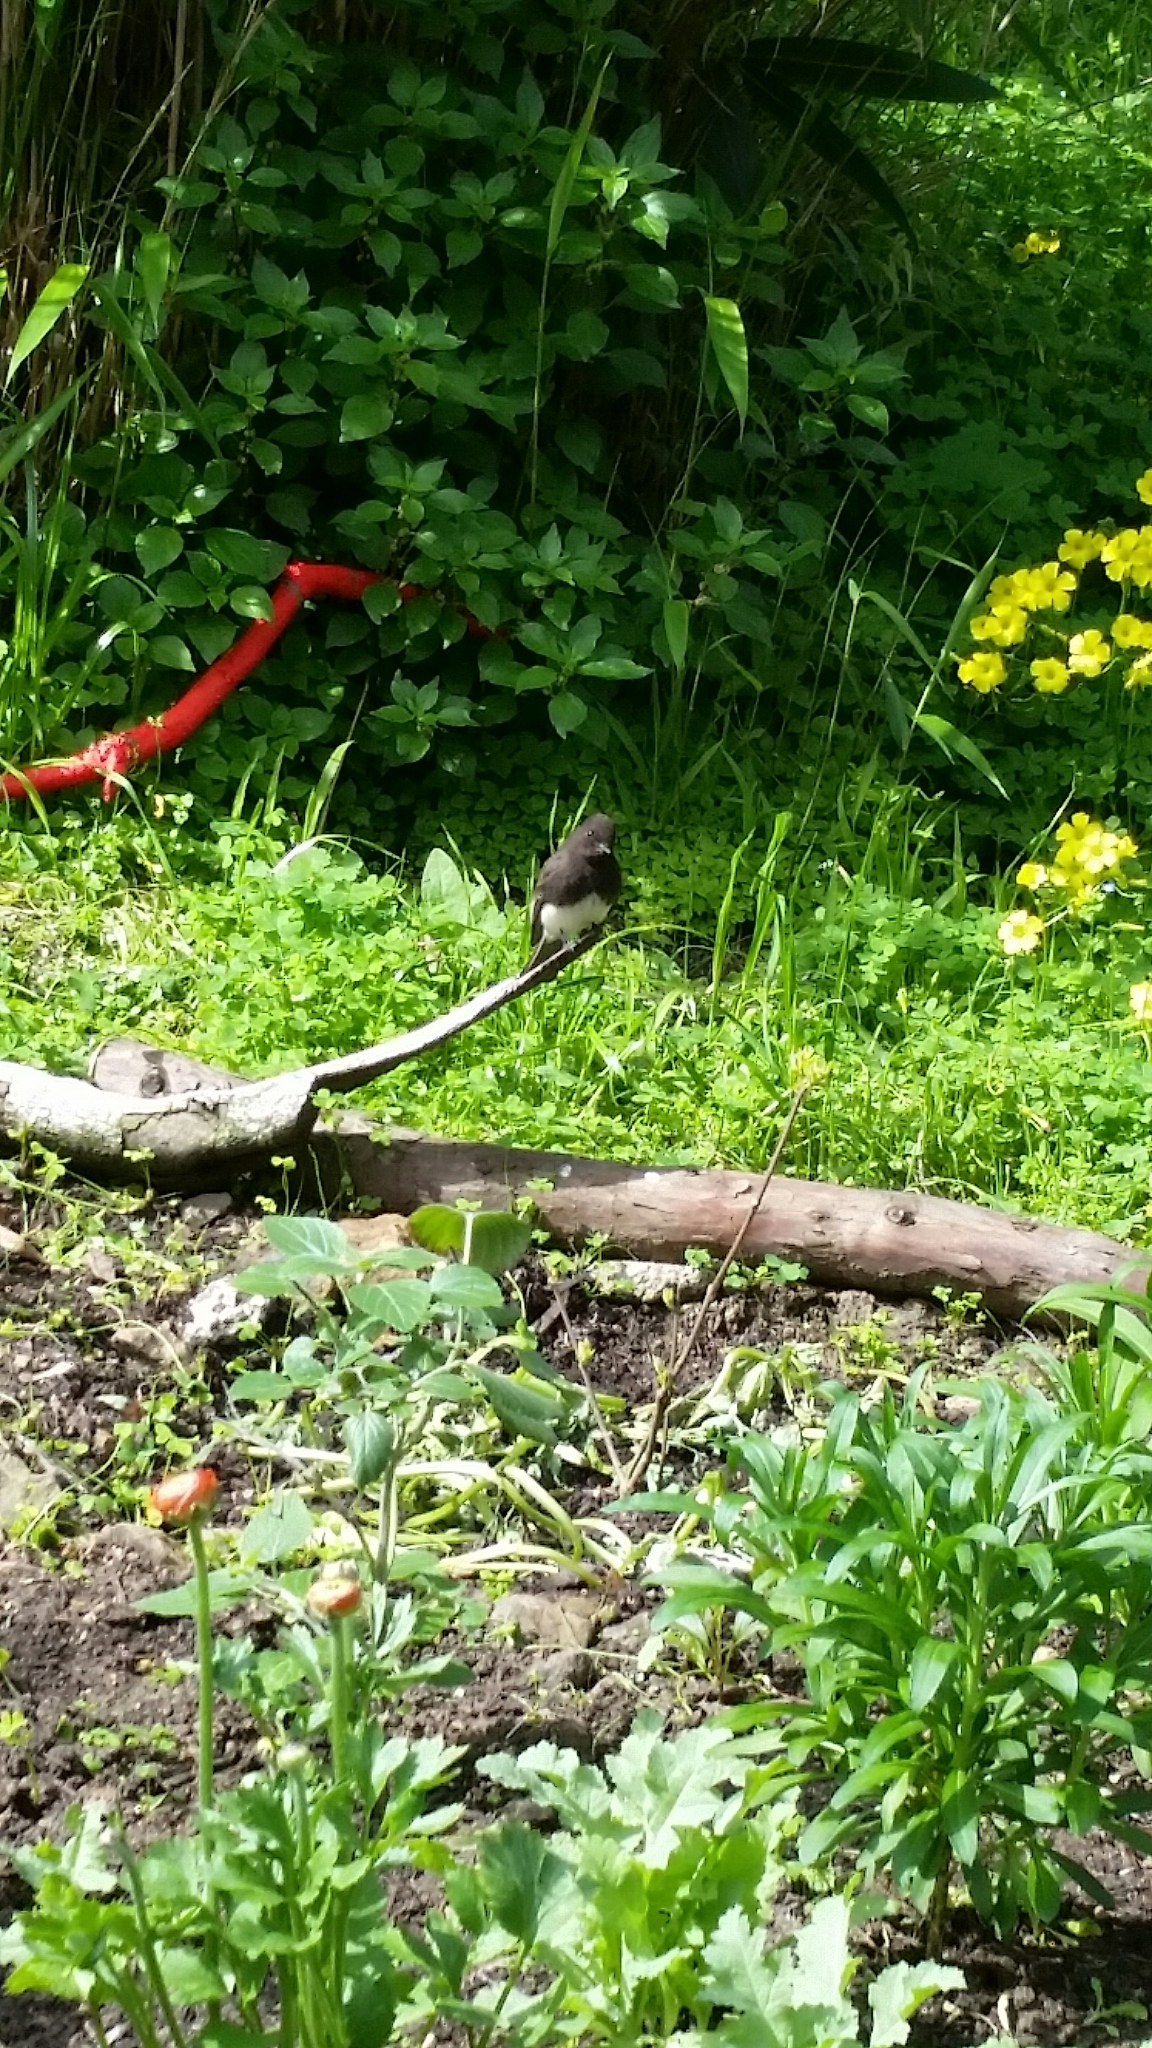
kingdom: Animalia
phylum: Chordata
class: Aves
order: Passeriformes
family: Tyrannidae
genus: Sayornis
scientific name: Sayornis nigricans
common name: Black phoebe
